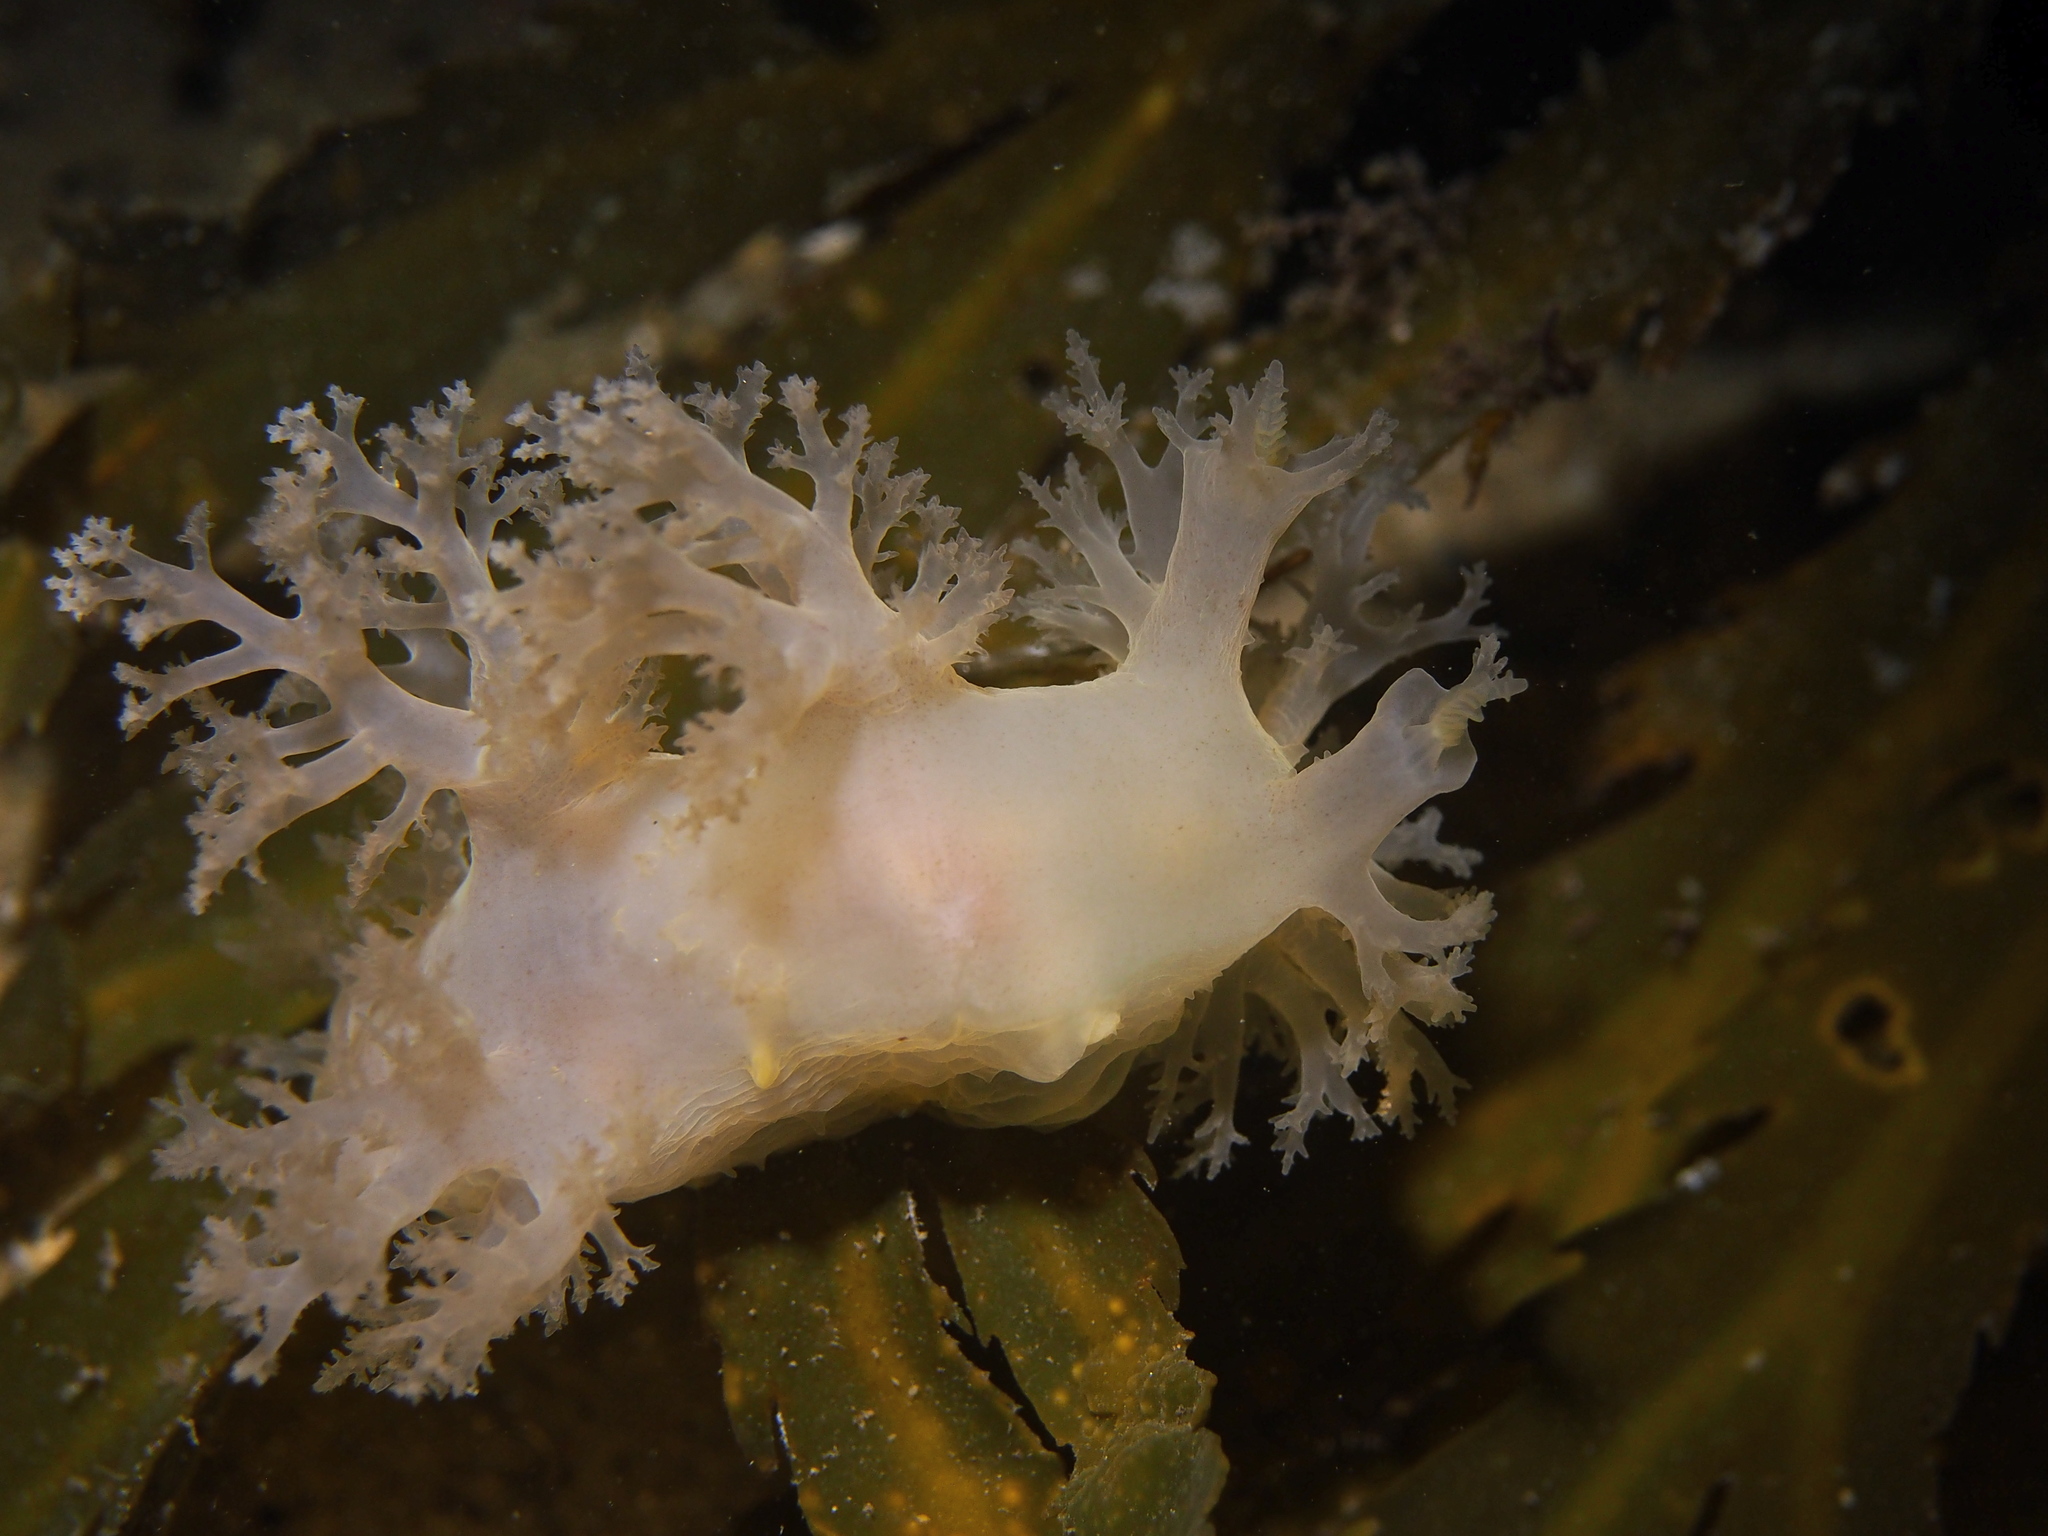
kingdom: Animalia
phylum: Mollusca
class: Gastropoda
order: Nudibranchia
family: Dendronotidae
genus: Dendronotus
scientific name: Dendronotus lacteus
